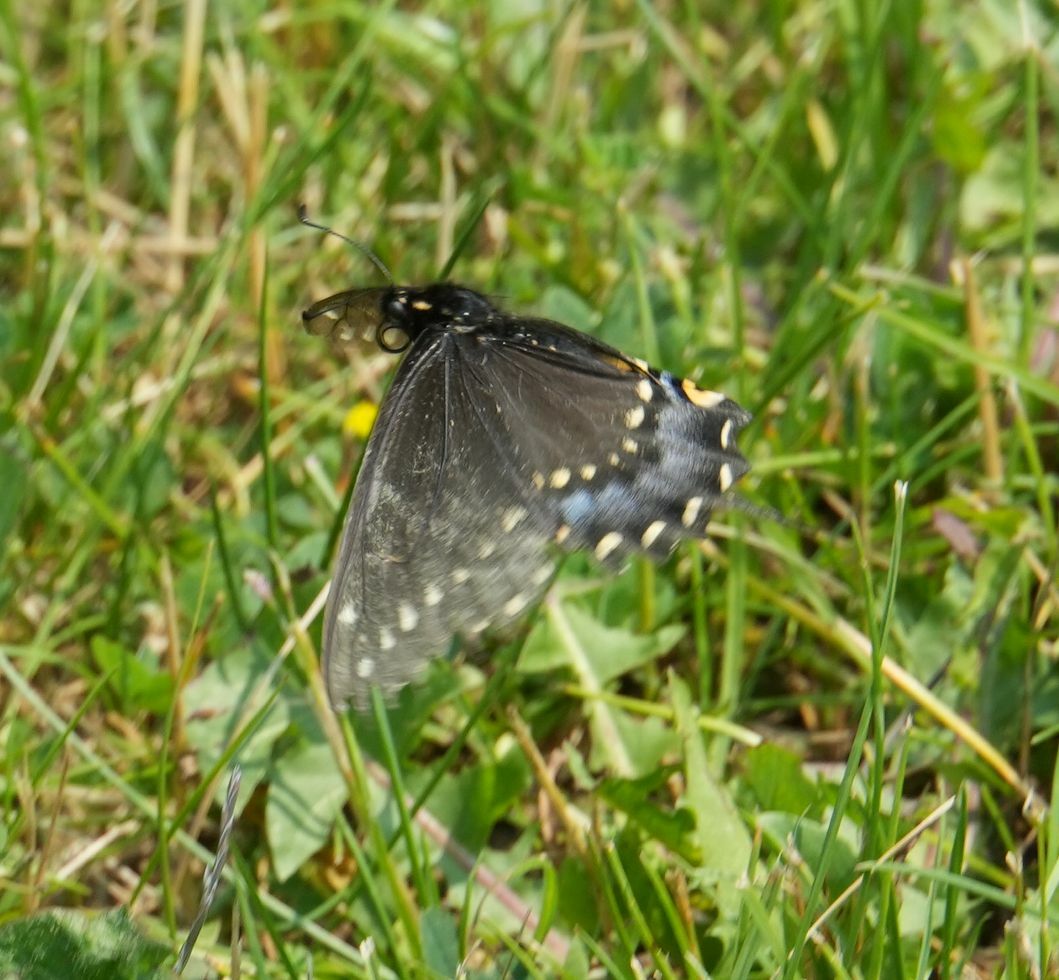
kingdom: Animalia
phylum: Arthropoda
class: Insecta
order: Lepidoptera
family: Papilionidae
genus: Papilio
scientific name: Papilio polyxenes
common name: Black swallowtail
